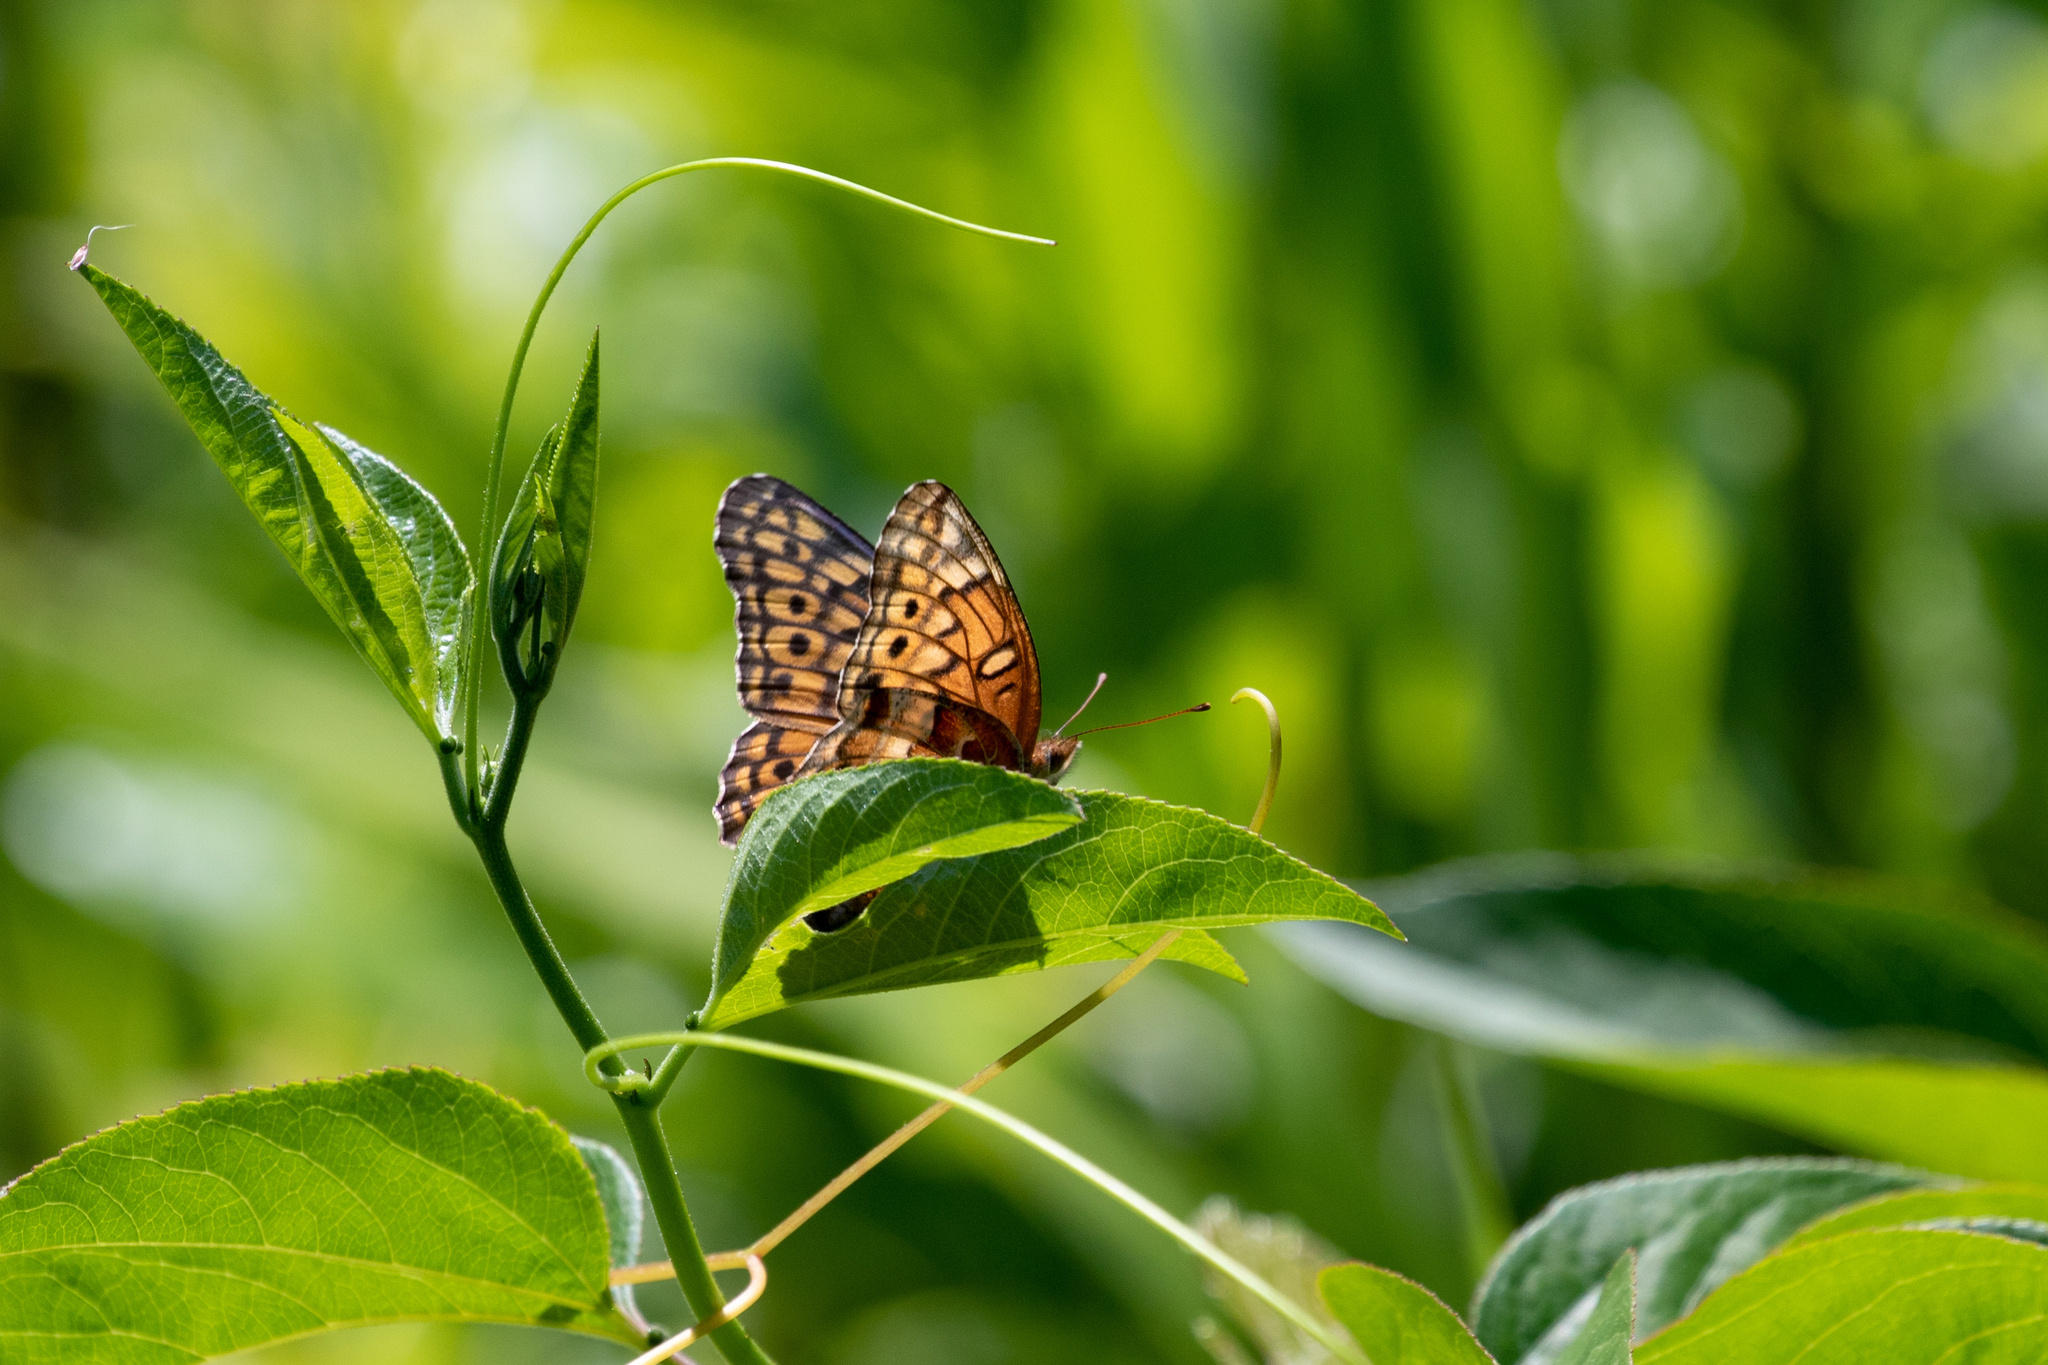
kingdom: Animalia
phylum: Arthropoda
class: Insecta
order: Lepidoptera
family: Nymphalidae
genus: Euptoieta
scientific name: Euptoieta claudia
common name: Variegated fritillary
